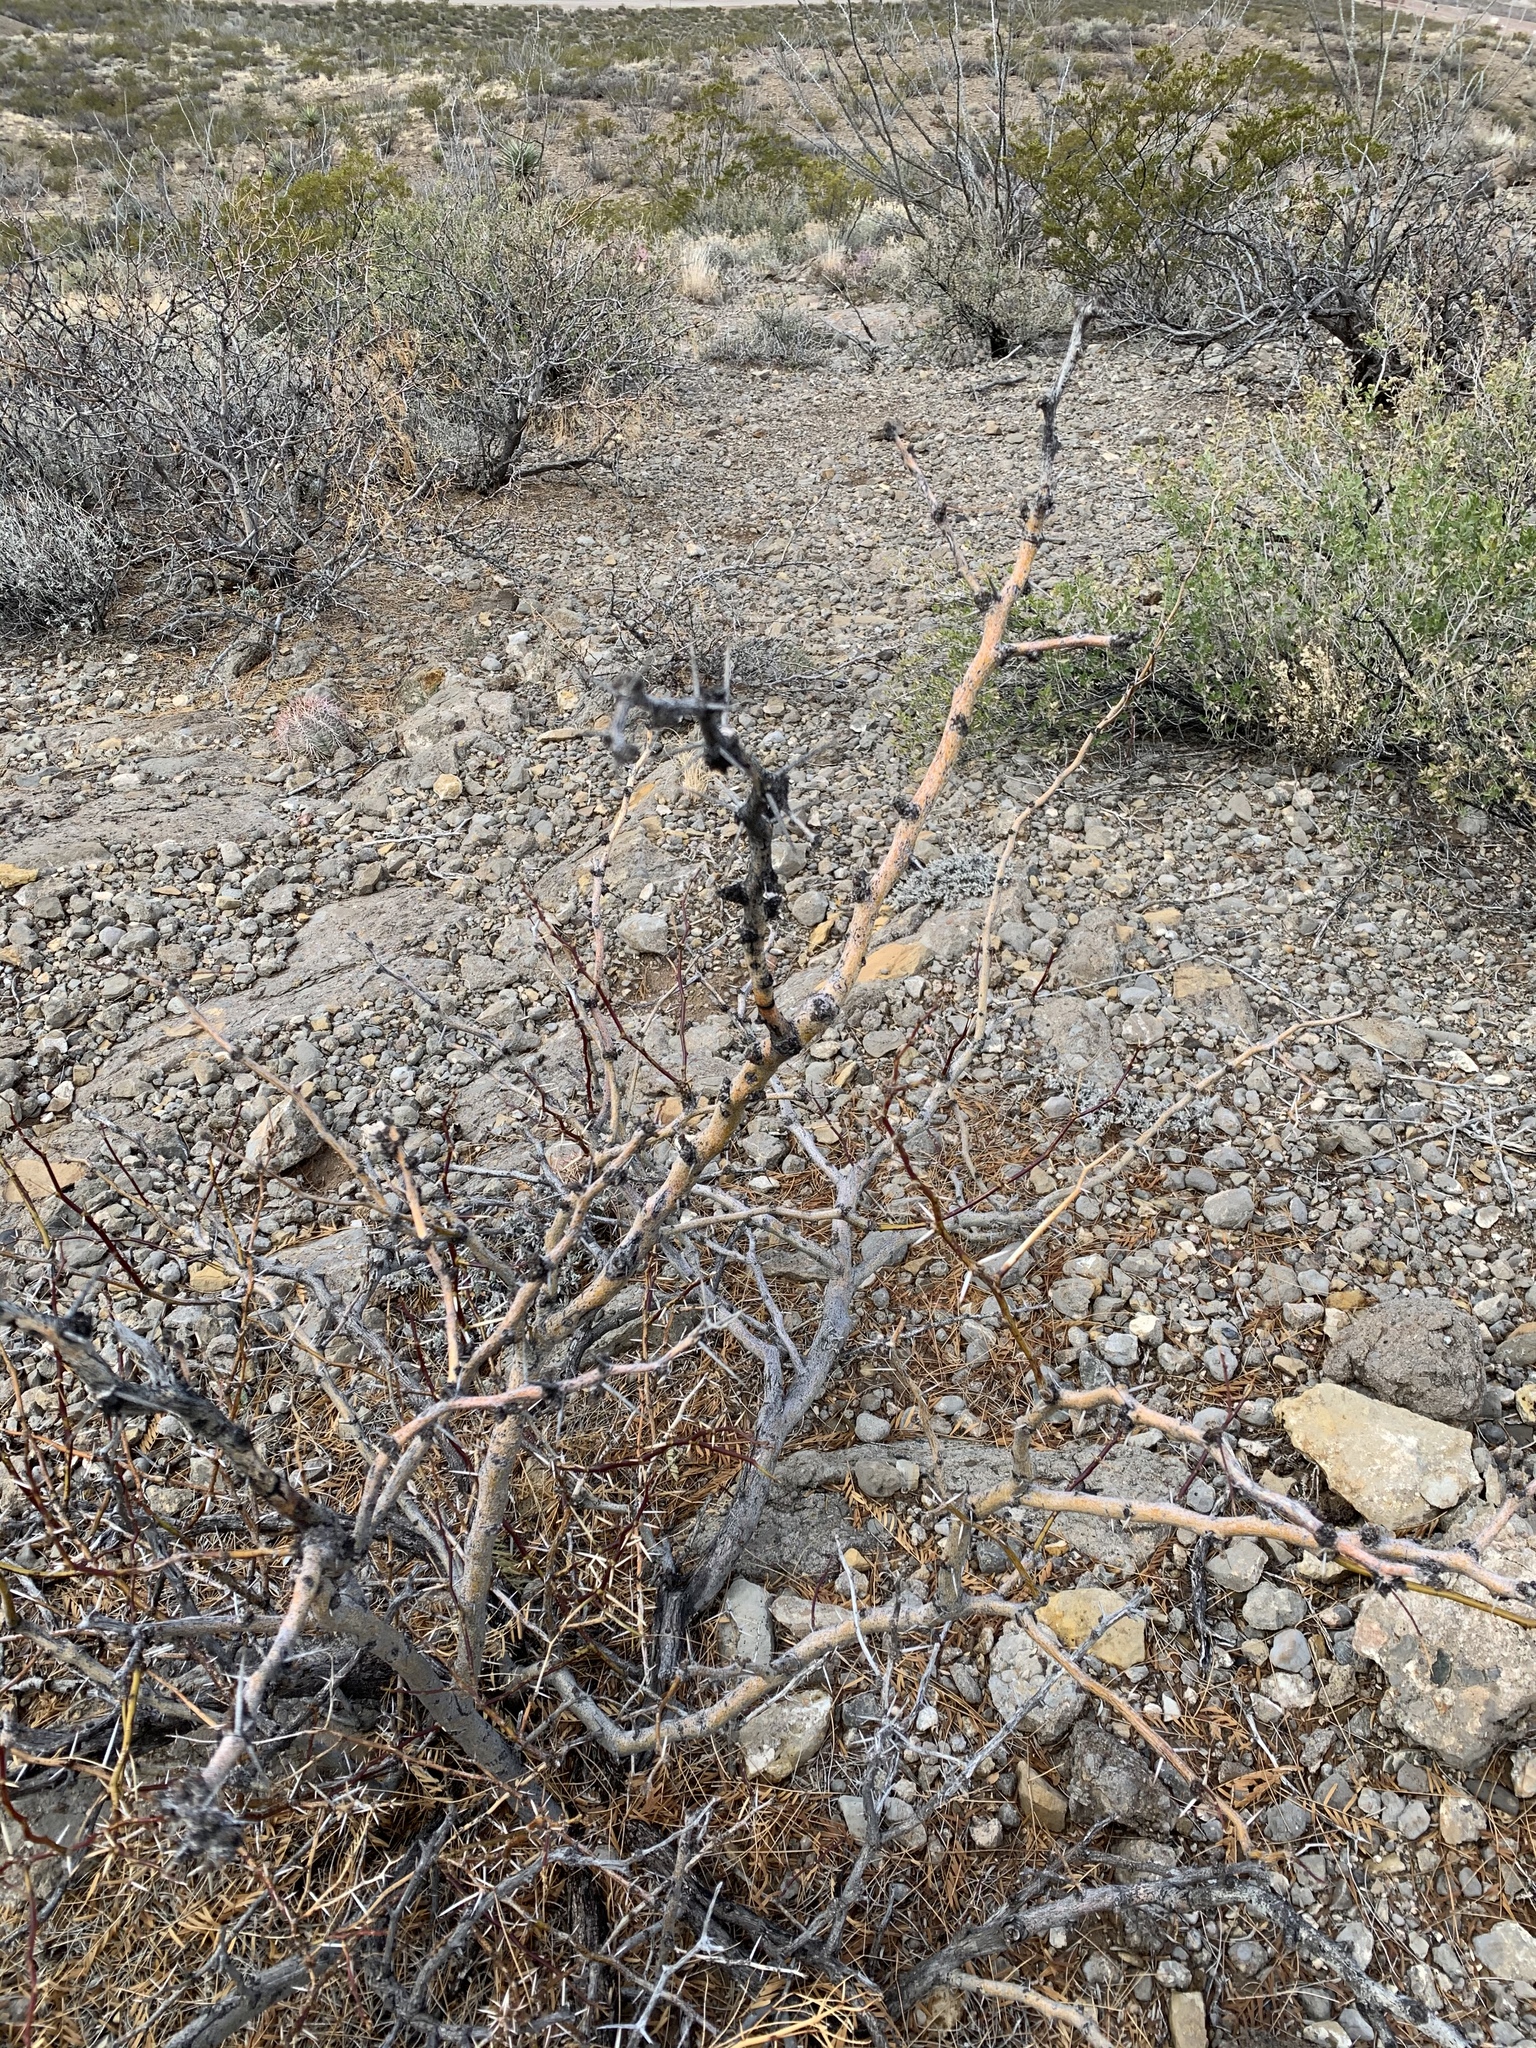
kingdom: Plantae
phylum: Tracheophyta
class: Magnoliopsida
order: Fabales
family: Fabaceae
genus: Prosopis
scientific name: Prosopis glandulosa
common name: Honey mesquite
